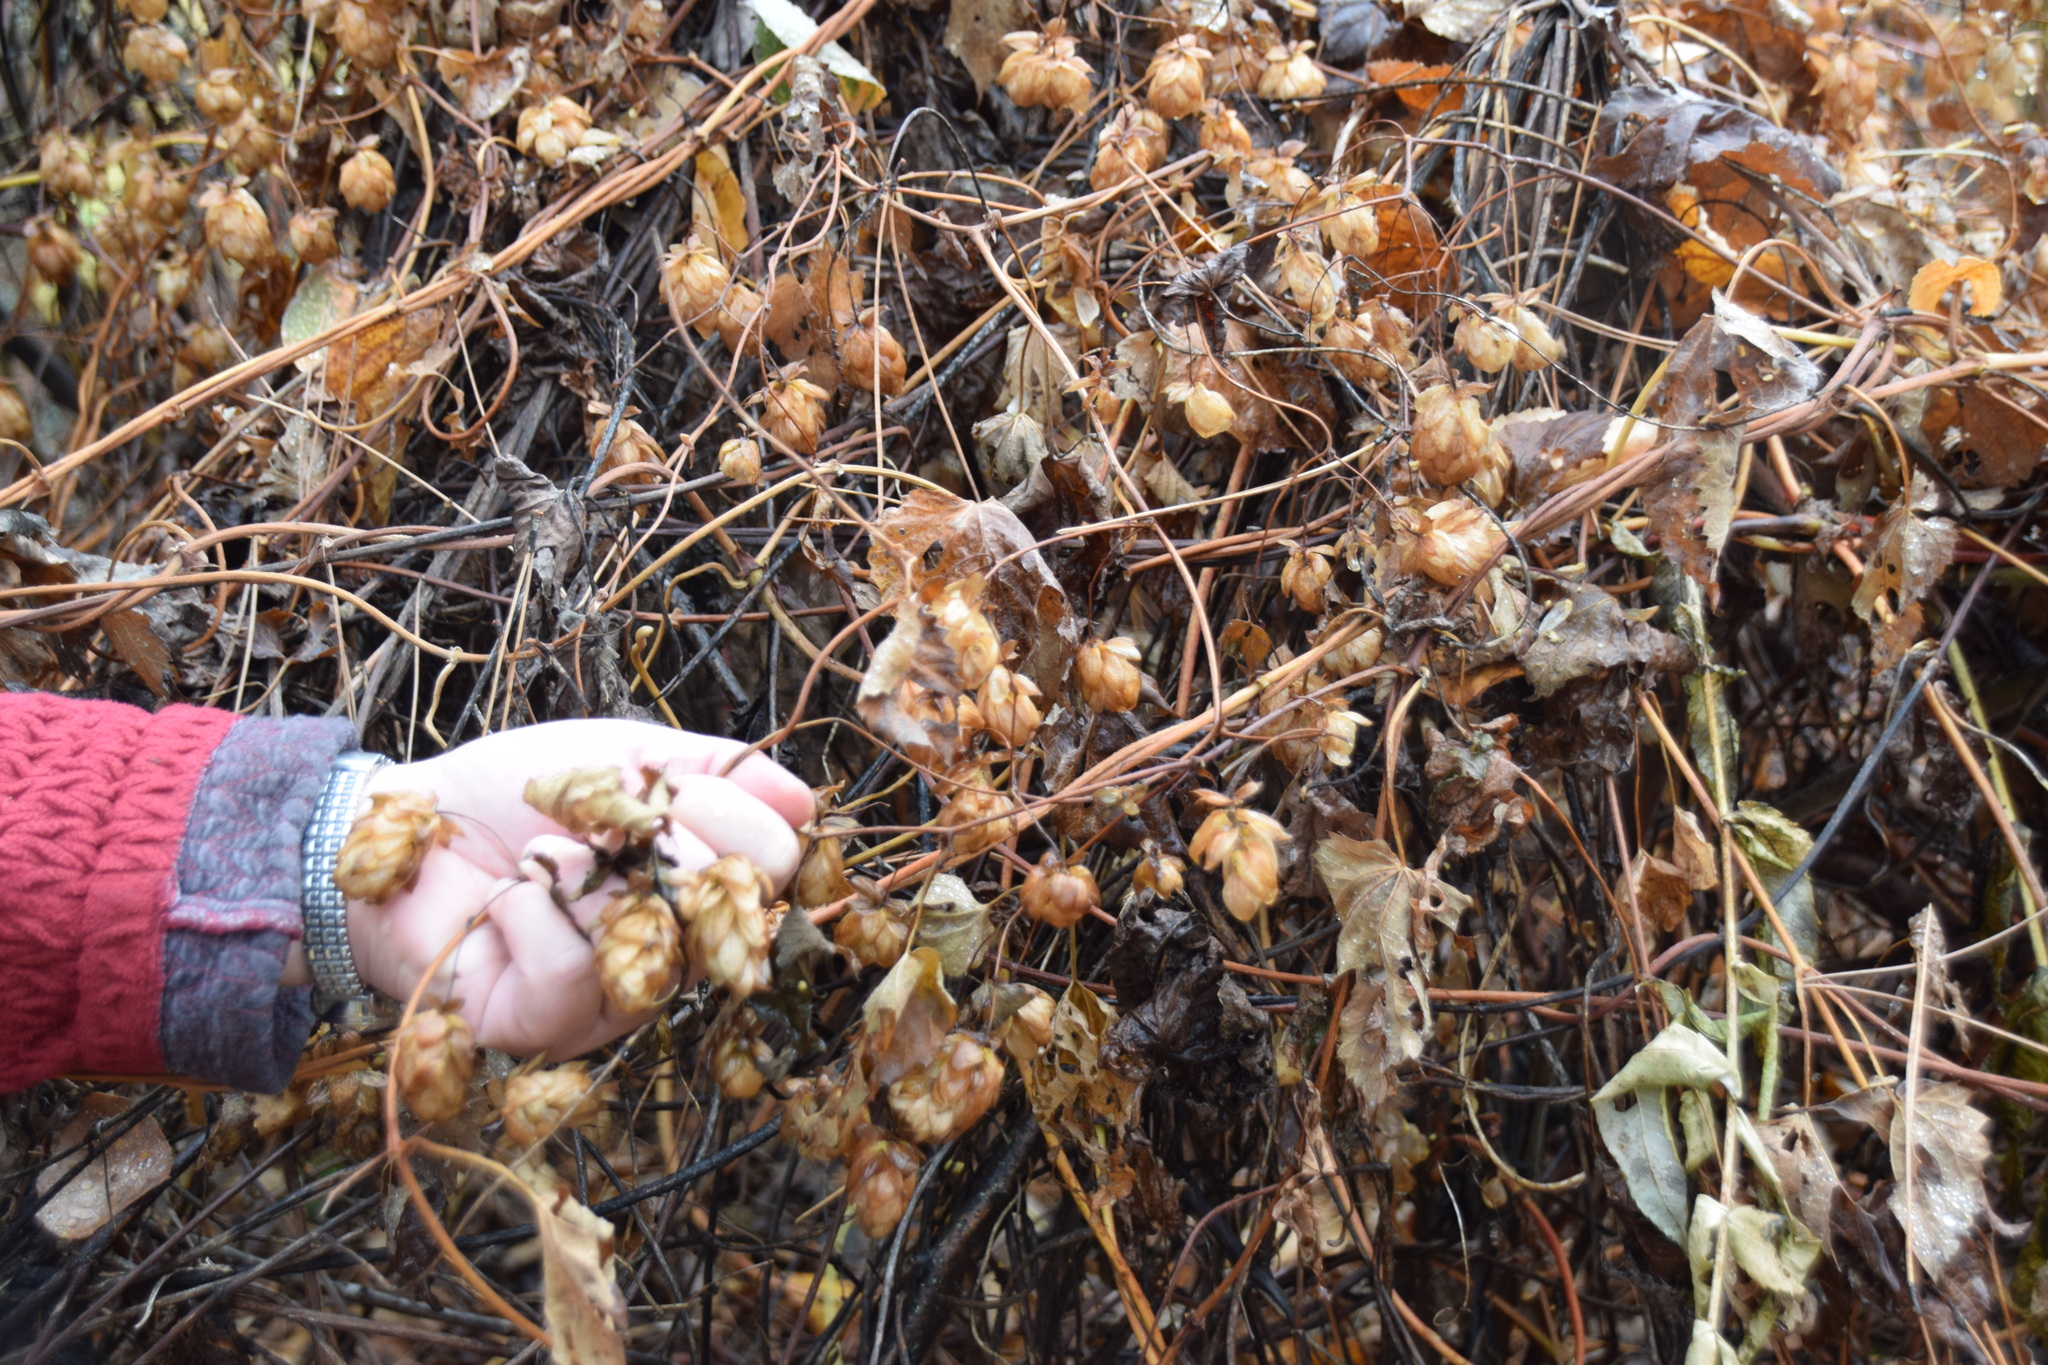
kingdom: Plantae
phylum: Tracheophyta
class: Magnoliopsida
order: Rosales
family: Cannabaceae
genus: Humulus
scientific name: Humulus lupulus
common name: Hop
